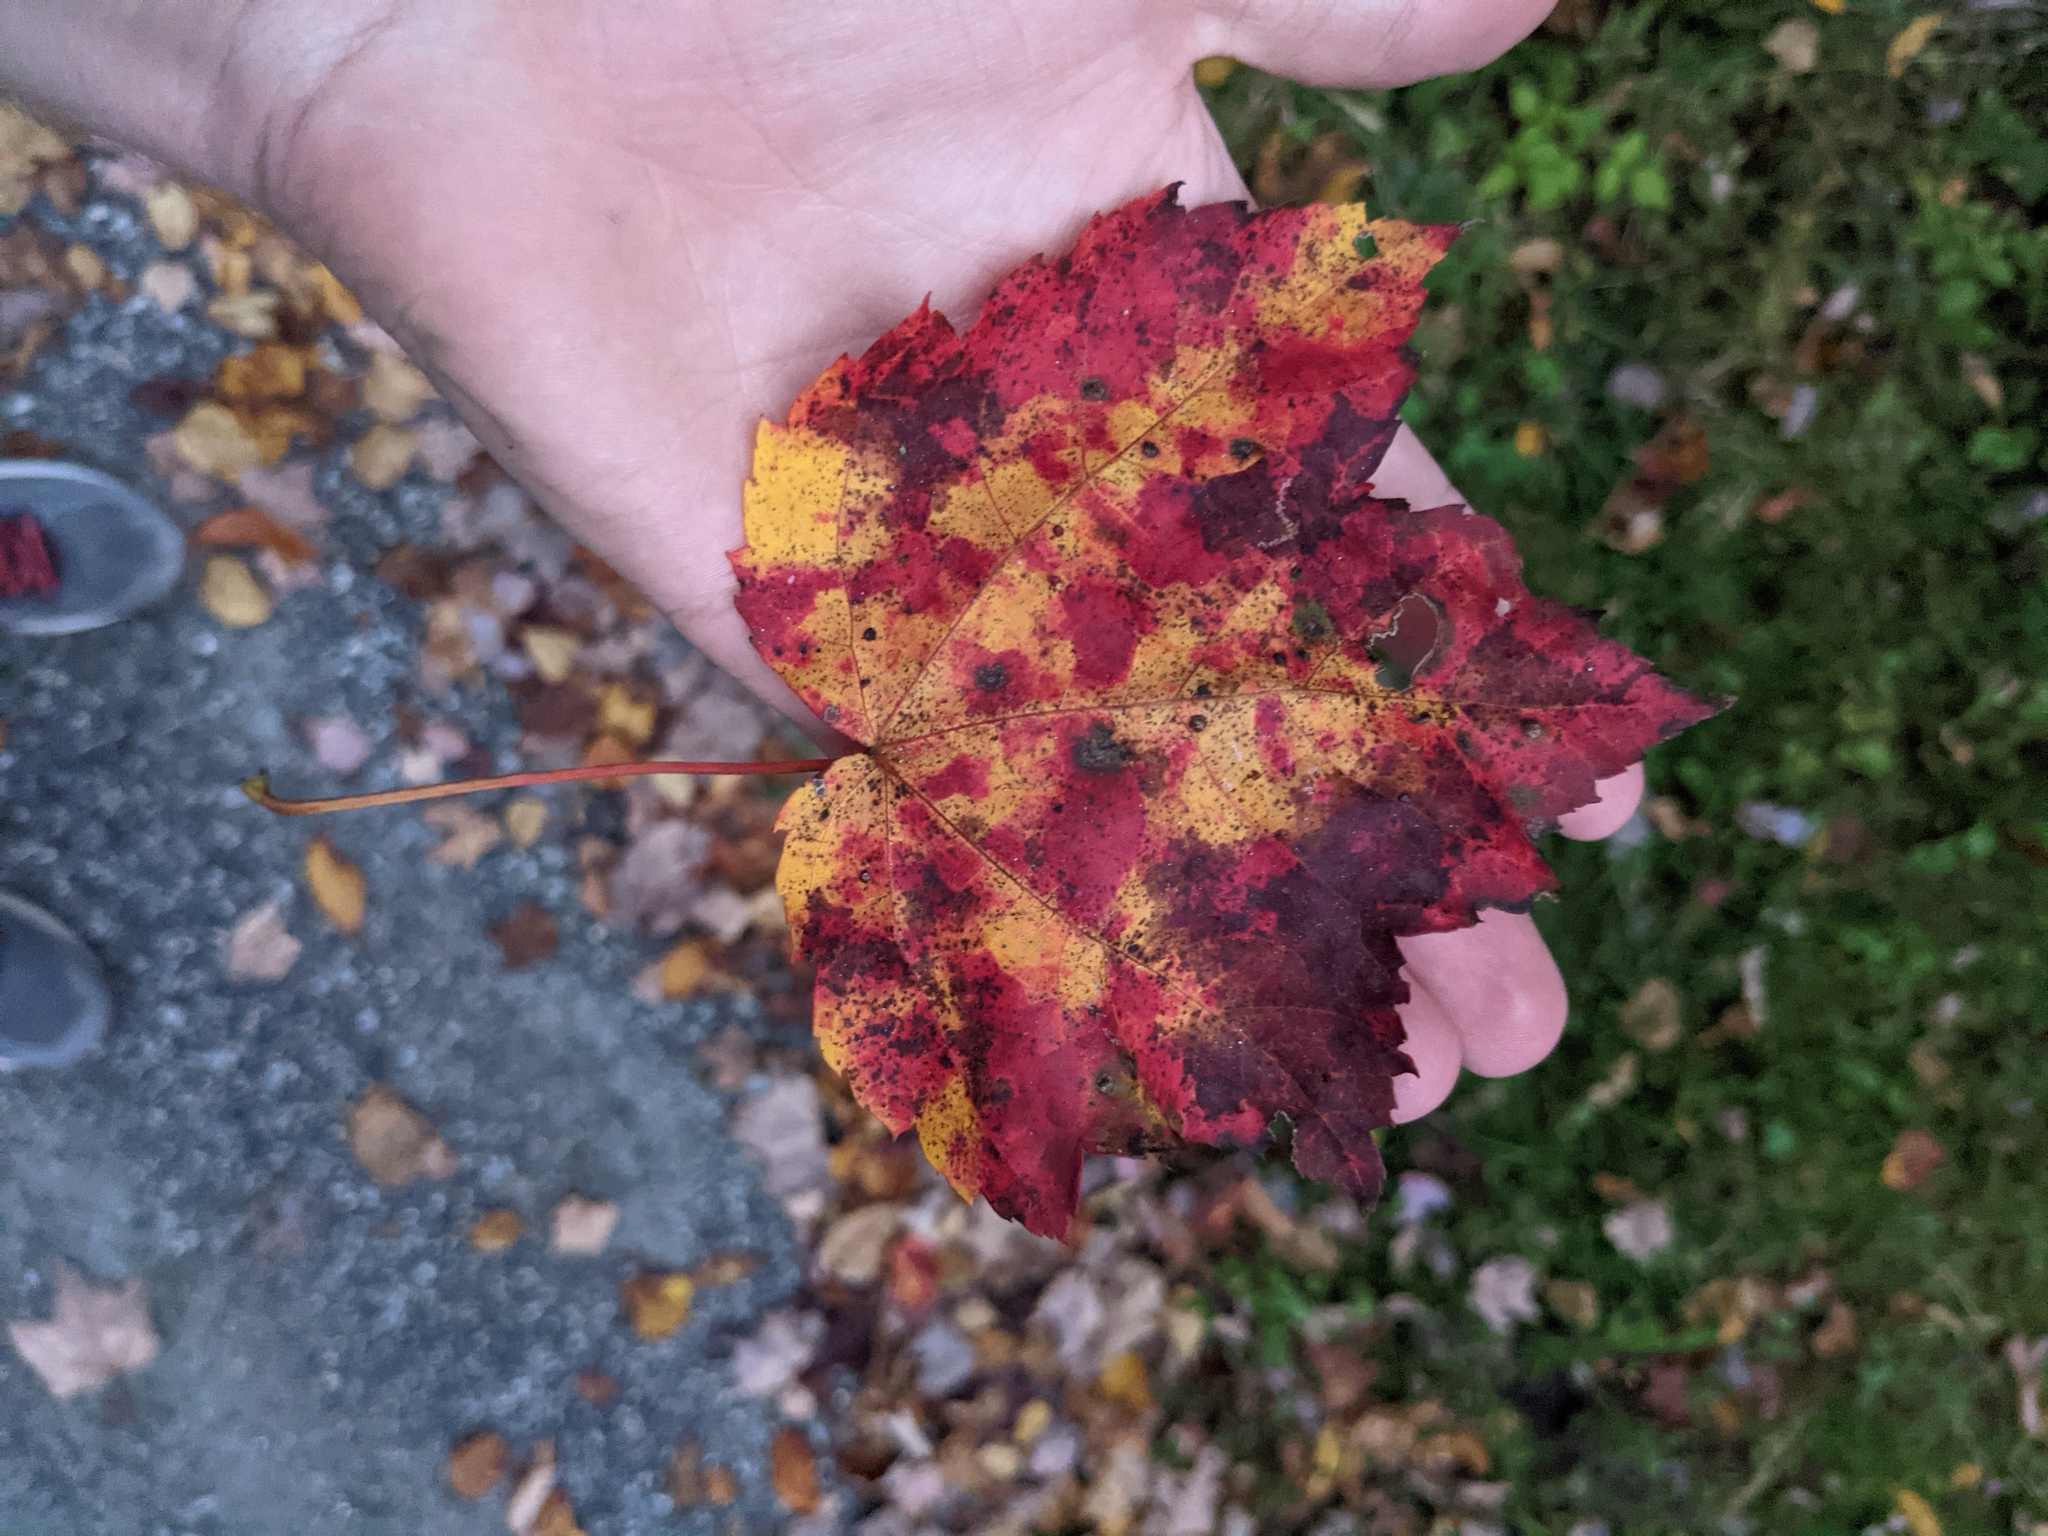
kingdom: Plantae
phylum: Tracheophyta
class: Magnoliopsida
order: Sapindales
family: Sapindaceae
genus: Acer
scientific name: Acer rubrum
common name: Red maple
